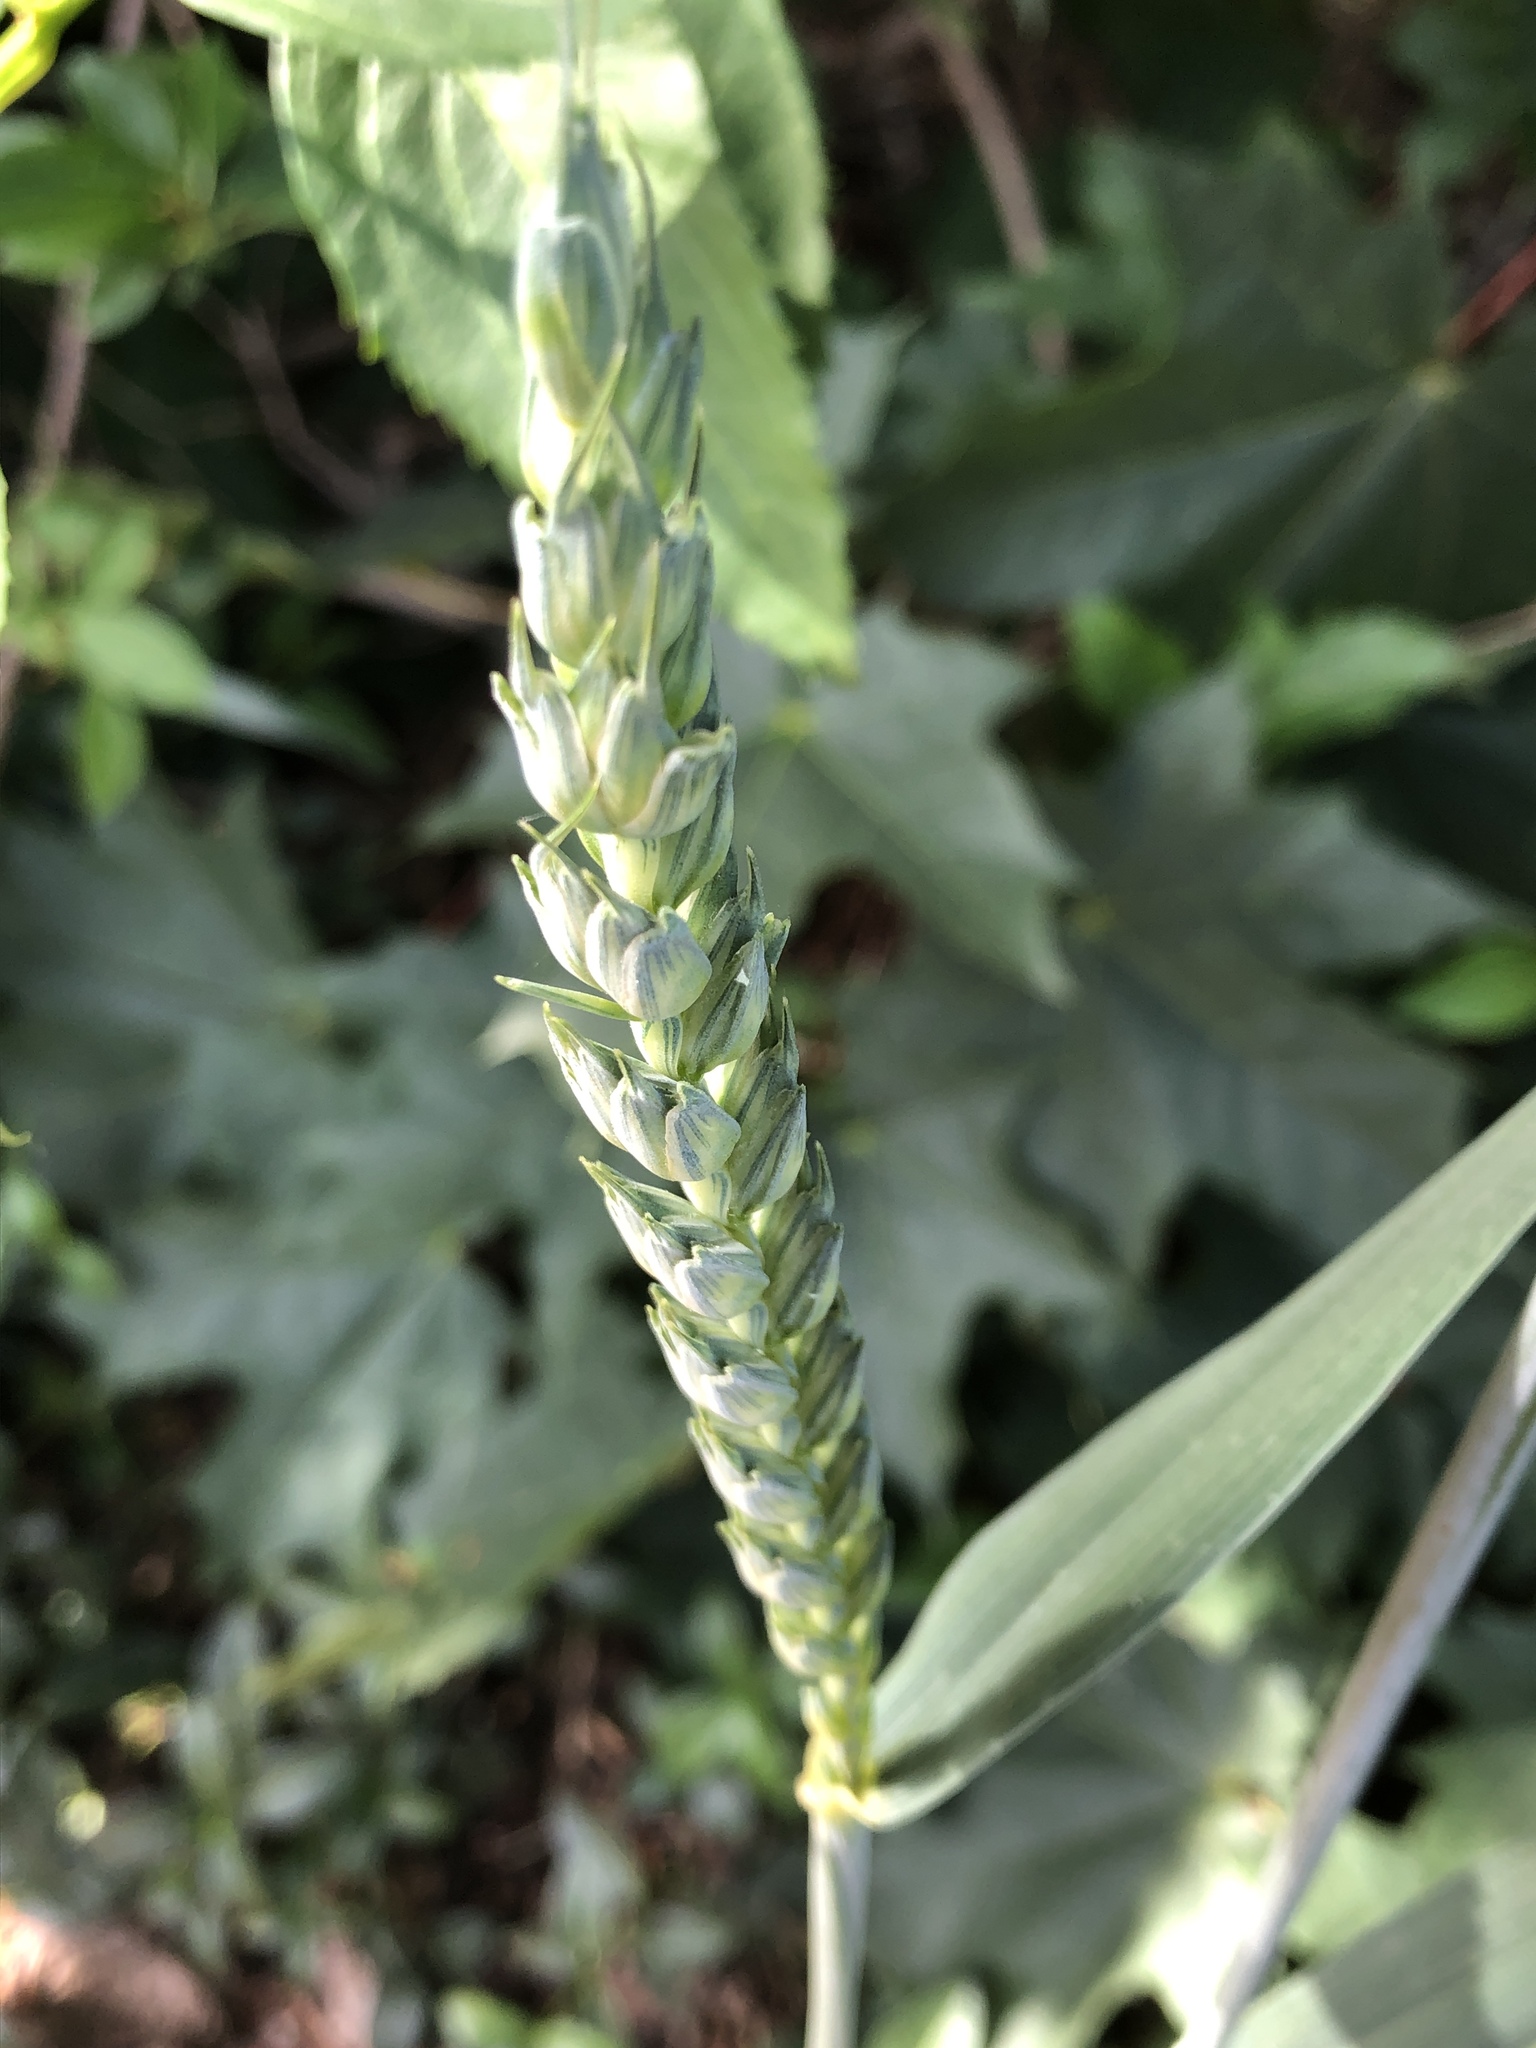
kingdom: Plantae
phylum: Tracheophyta
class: Liliopsida
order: Poales
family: Poaceae
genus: Triticum
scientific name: Triticum aestivum
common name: Common wheat
